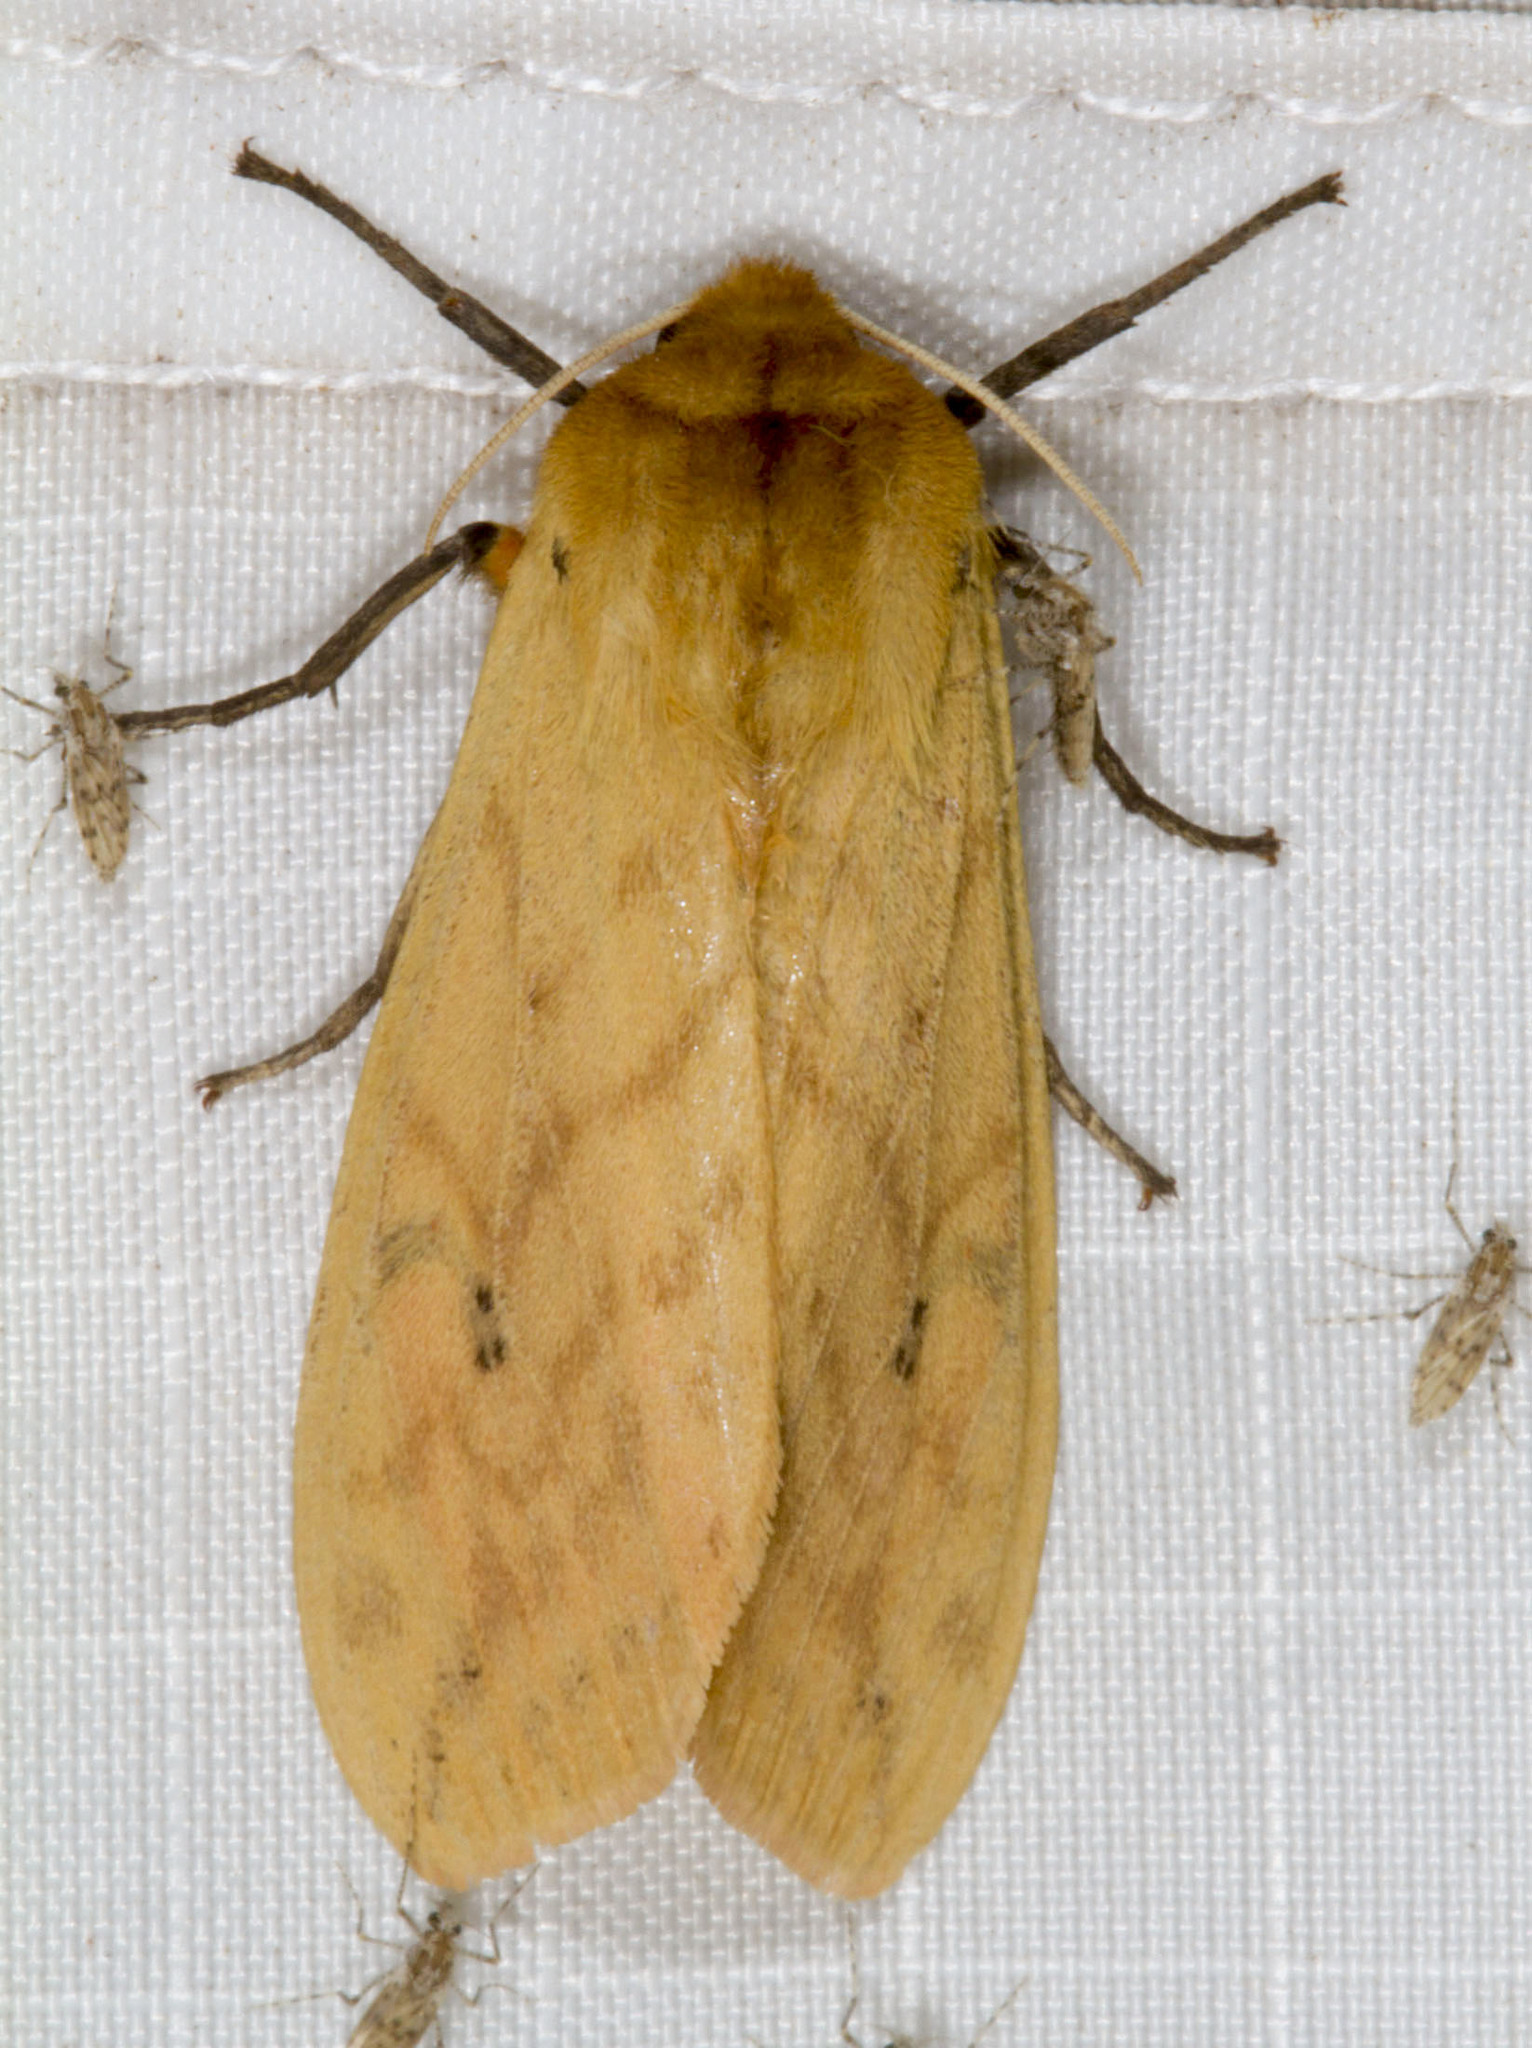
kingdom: Animalia
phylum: Arthropoda
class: Insecta
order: Lepidoptera
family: Erebidae
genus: Pyrrharctia
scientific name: Pyrrharctia isabella
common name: Isabella tiger moth
